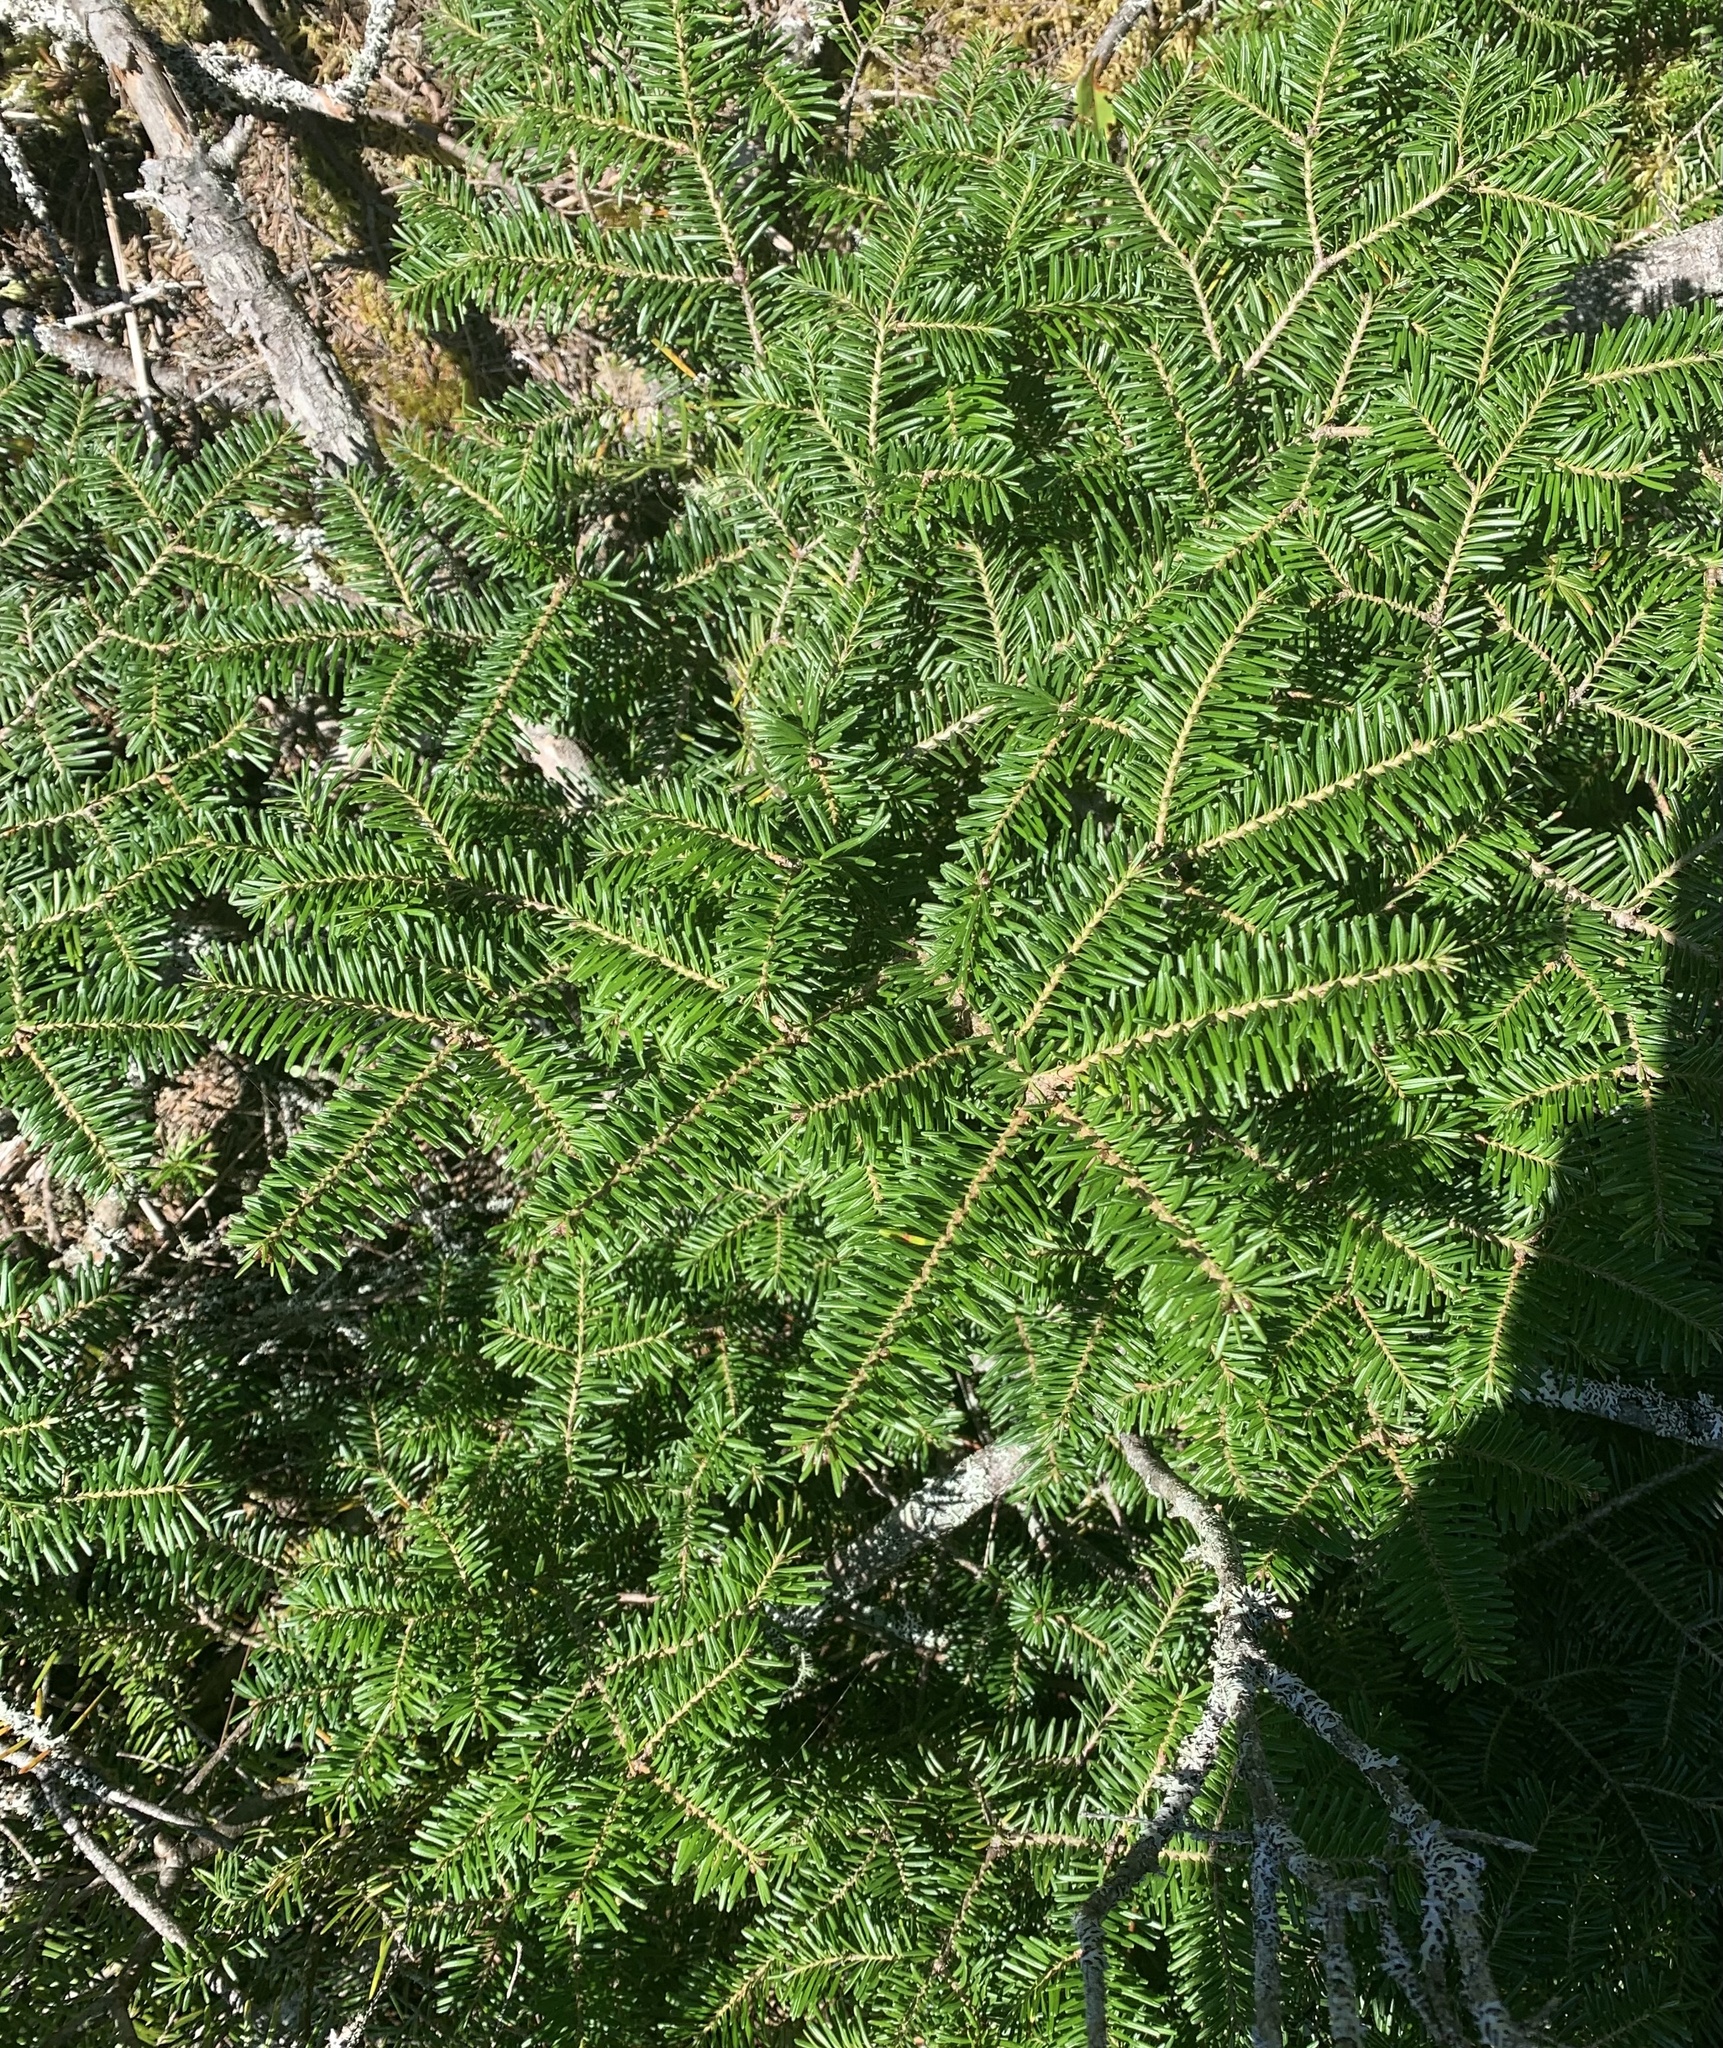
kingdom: Plantae
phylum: Tracheophyta
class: Pinopsida
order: Pinales
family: Pinaceae
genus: Abies
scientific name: Abies balsamea
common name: Balsam fir
